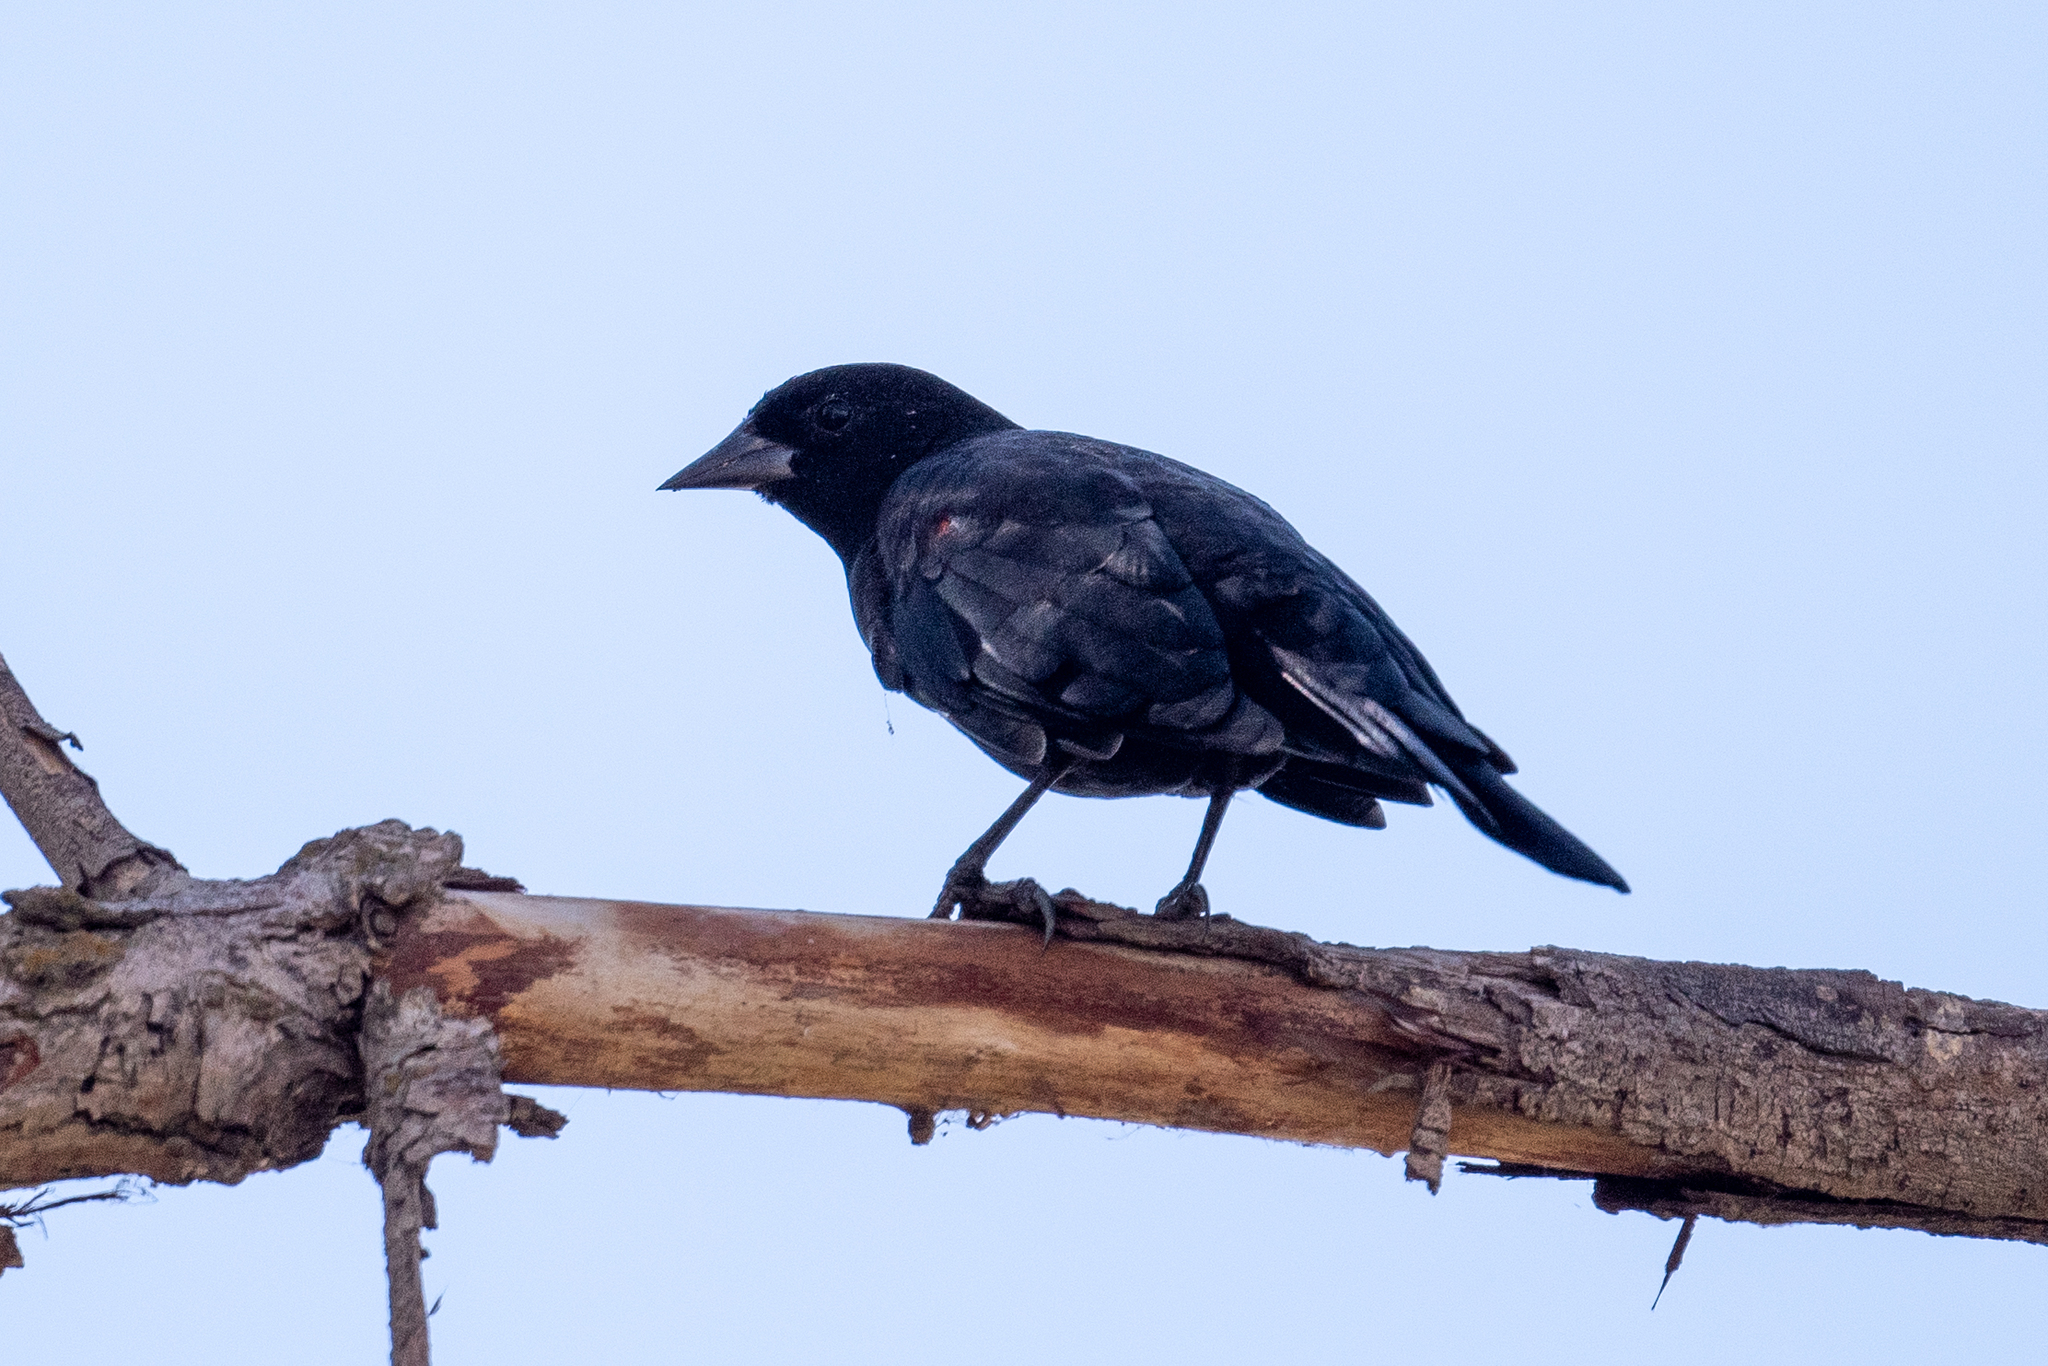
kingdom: Animalia
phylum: Chordata
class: Aves
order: Passeriformes
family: Icteridae
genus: Agelaius
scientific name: Agelaius phoeniceus
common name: Red-winged blackbird
